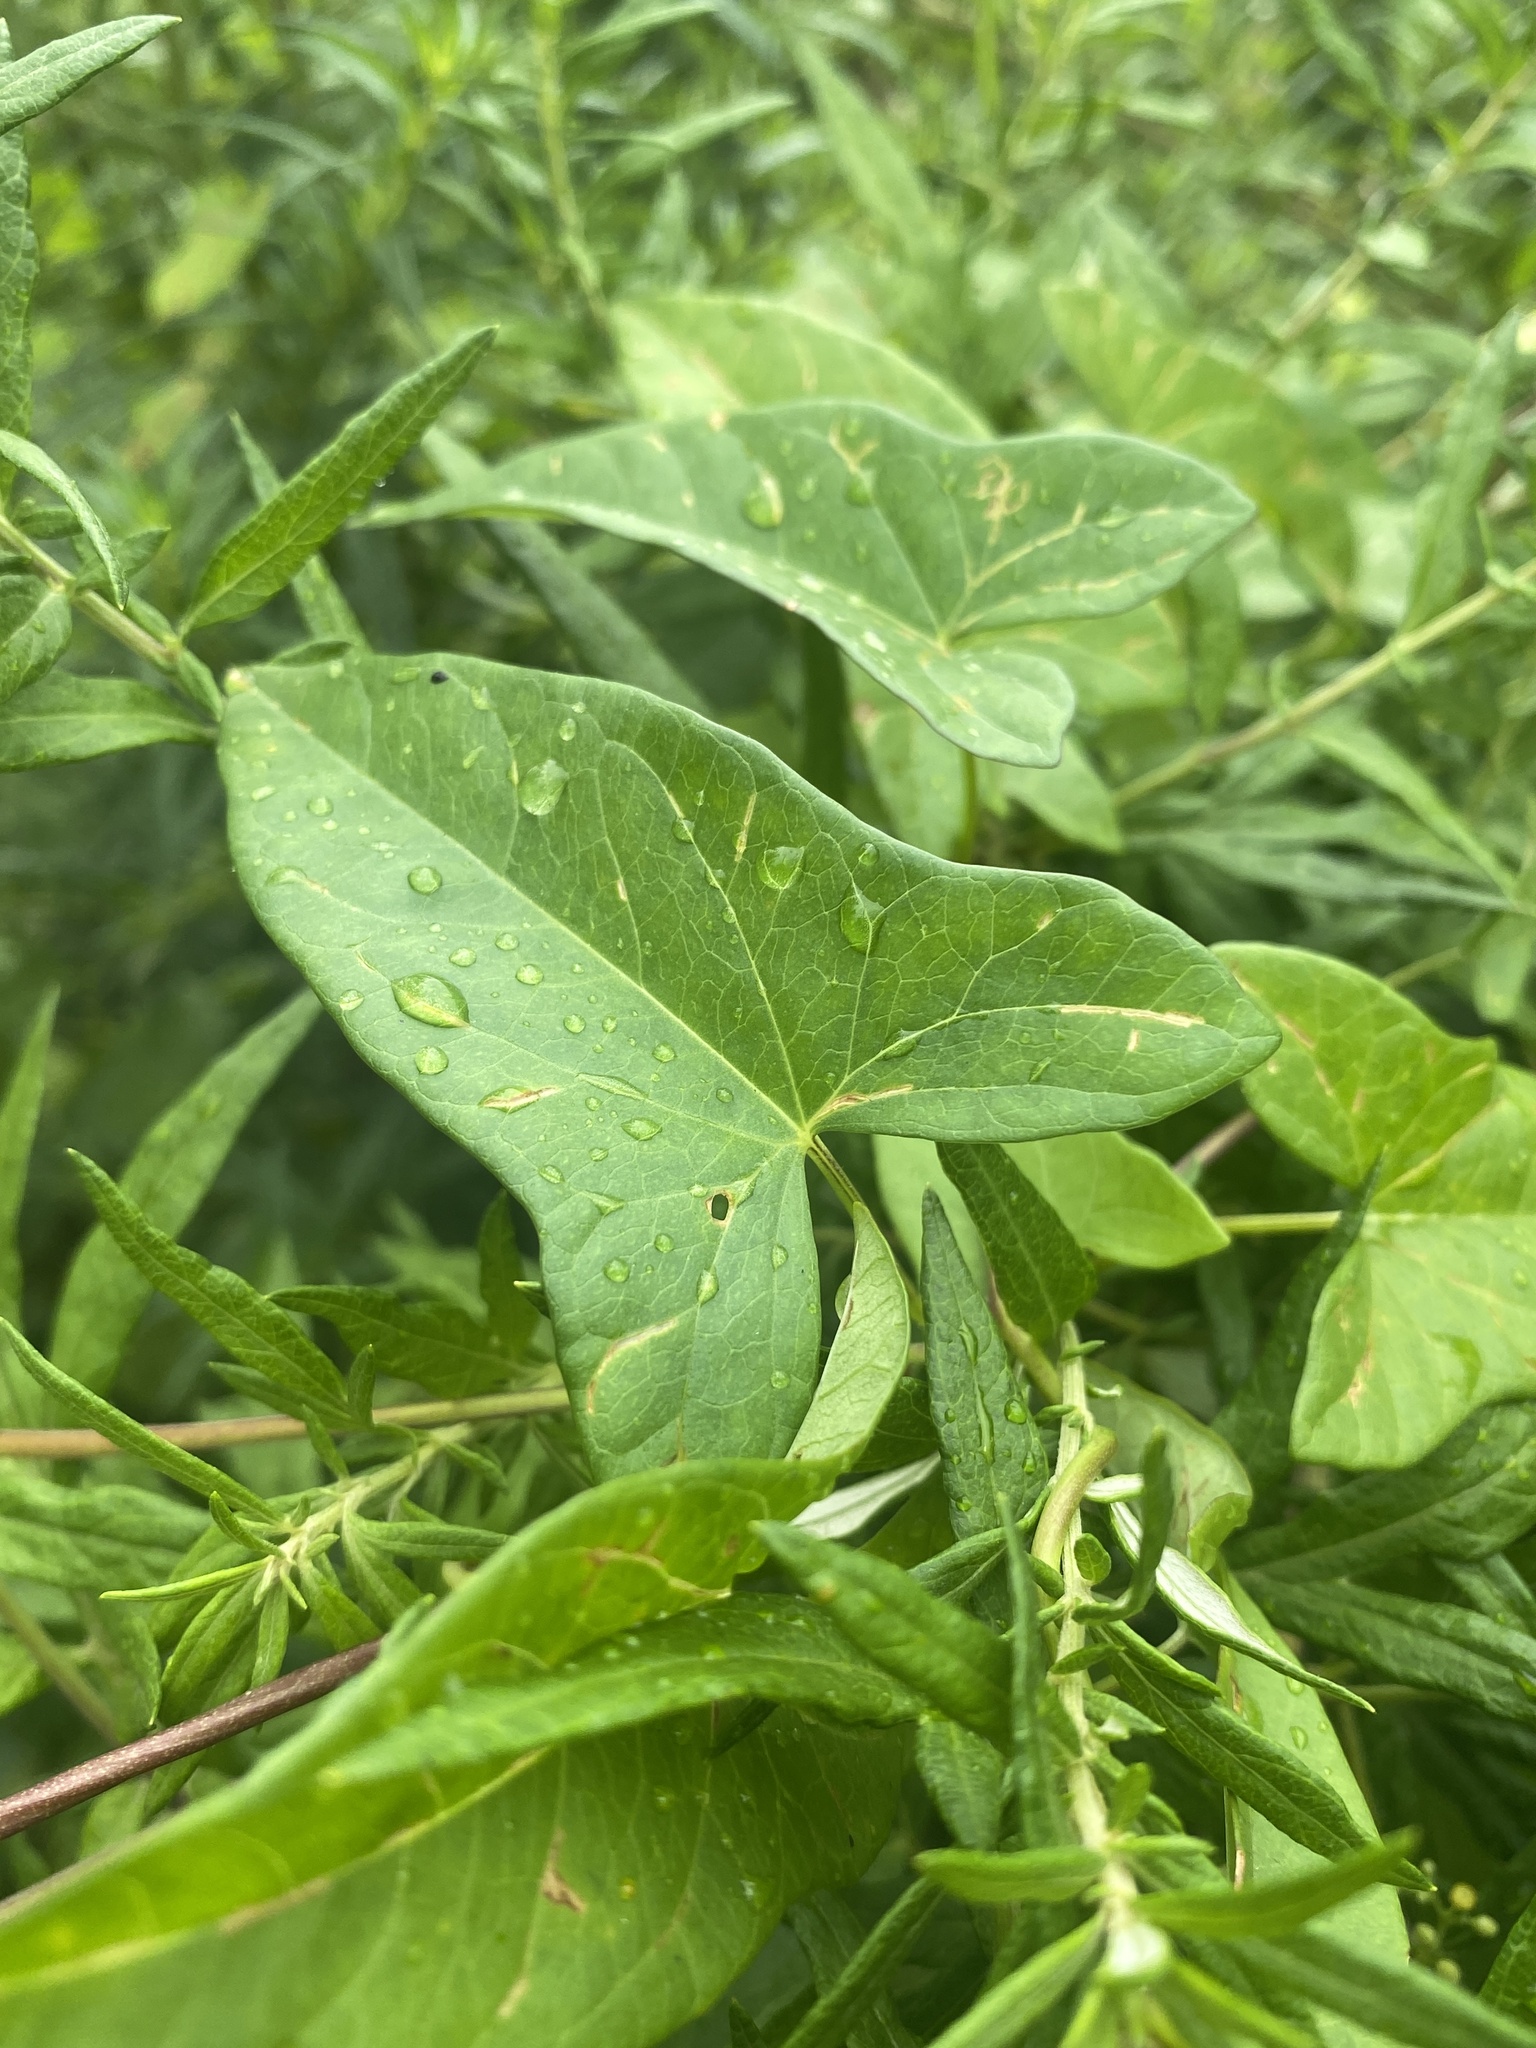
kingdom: Plantae
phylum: Tracheophyta
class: Magnoliopsida
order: Solanales
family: Convolvulaceae
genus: Calystegia
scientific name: Calystegia sepium
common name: Hedge bindweed
